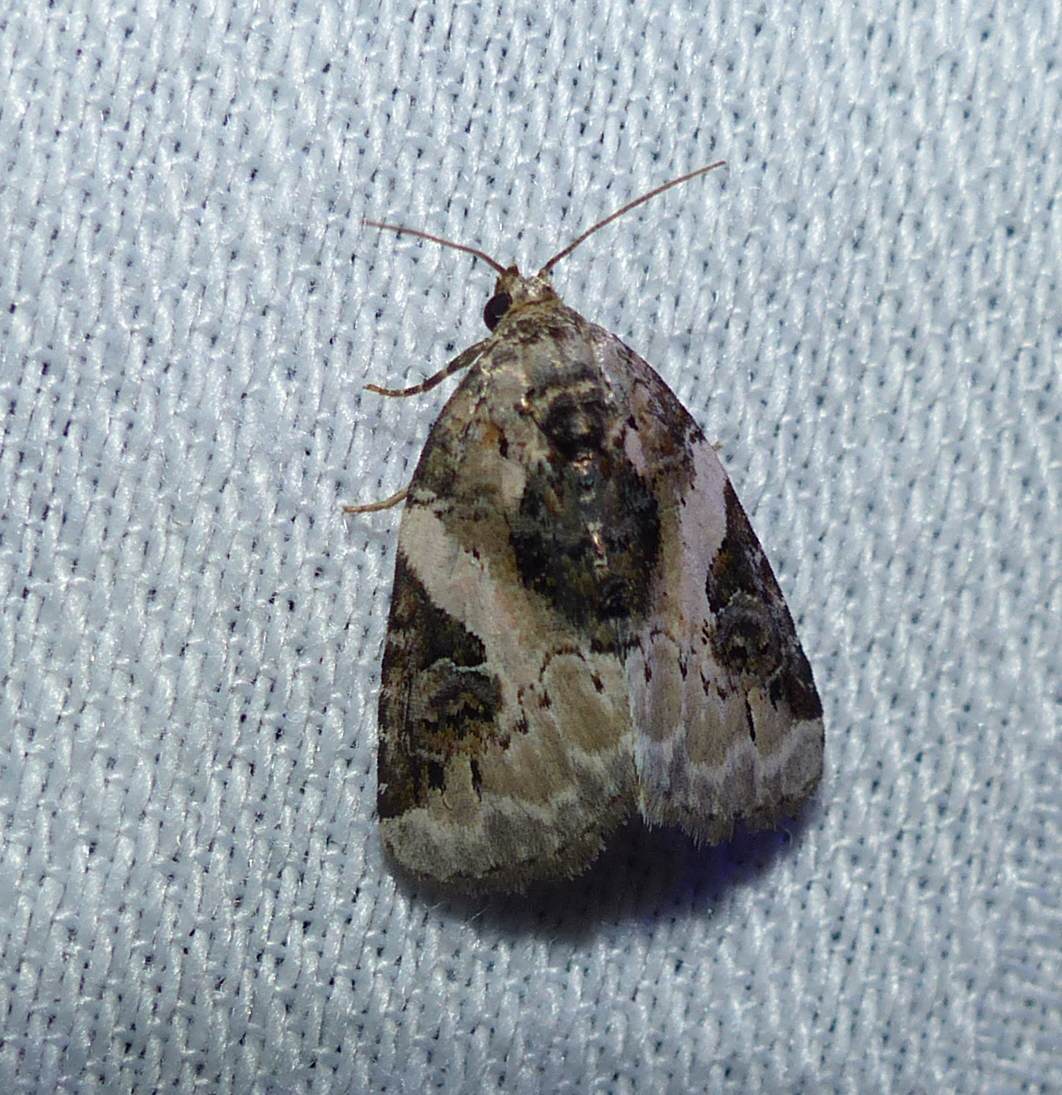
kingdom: Animalia
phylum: Arthropoda
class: Insecta
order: Lepidoptera
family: Noctuidae
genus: Pseudeustrotia
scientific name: Pseudeustrotia carneola
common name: Pink-barred lithacodia moth
